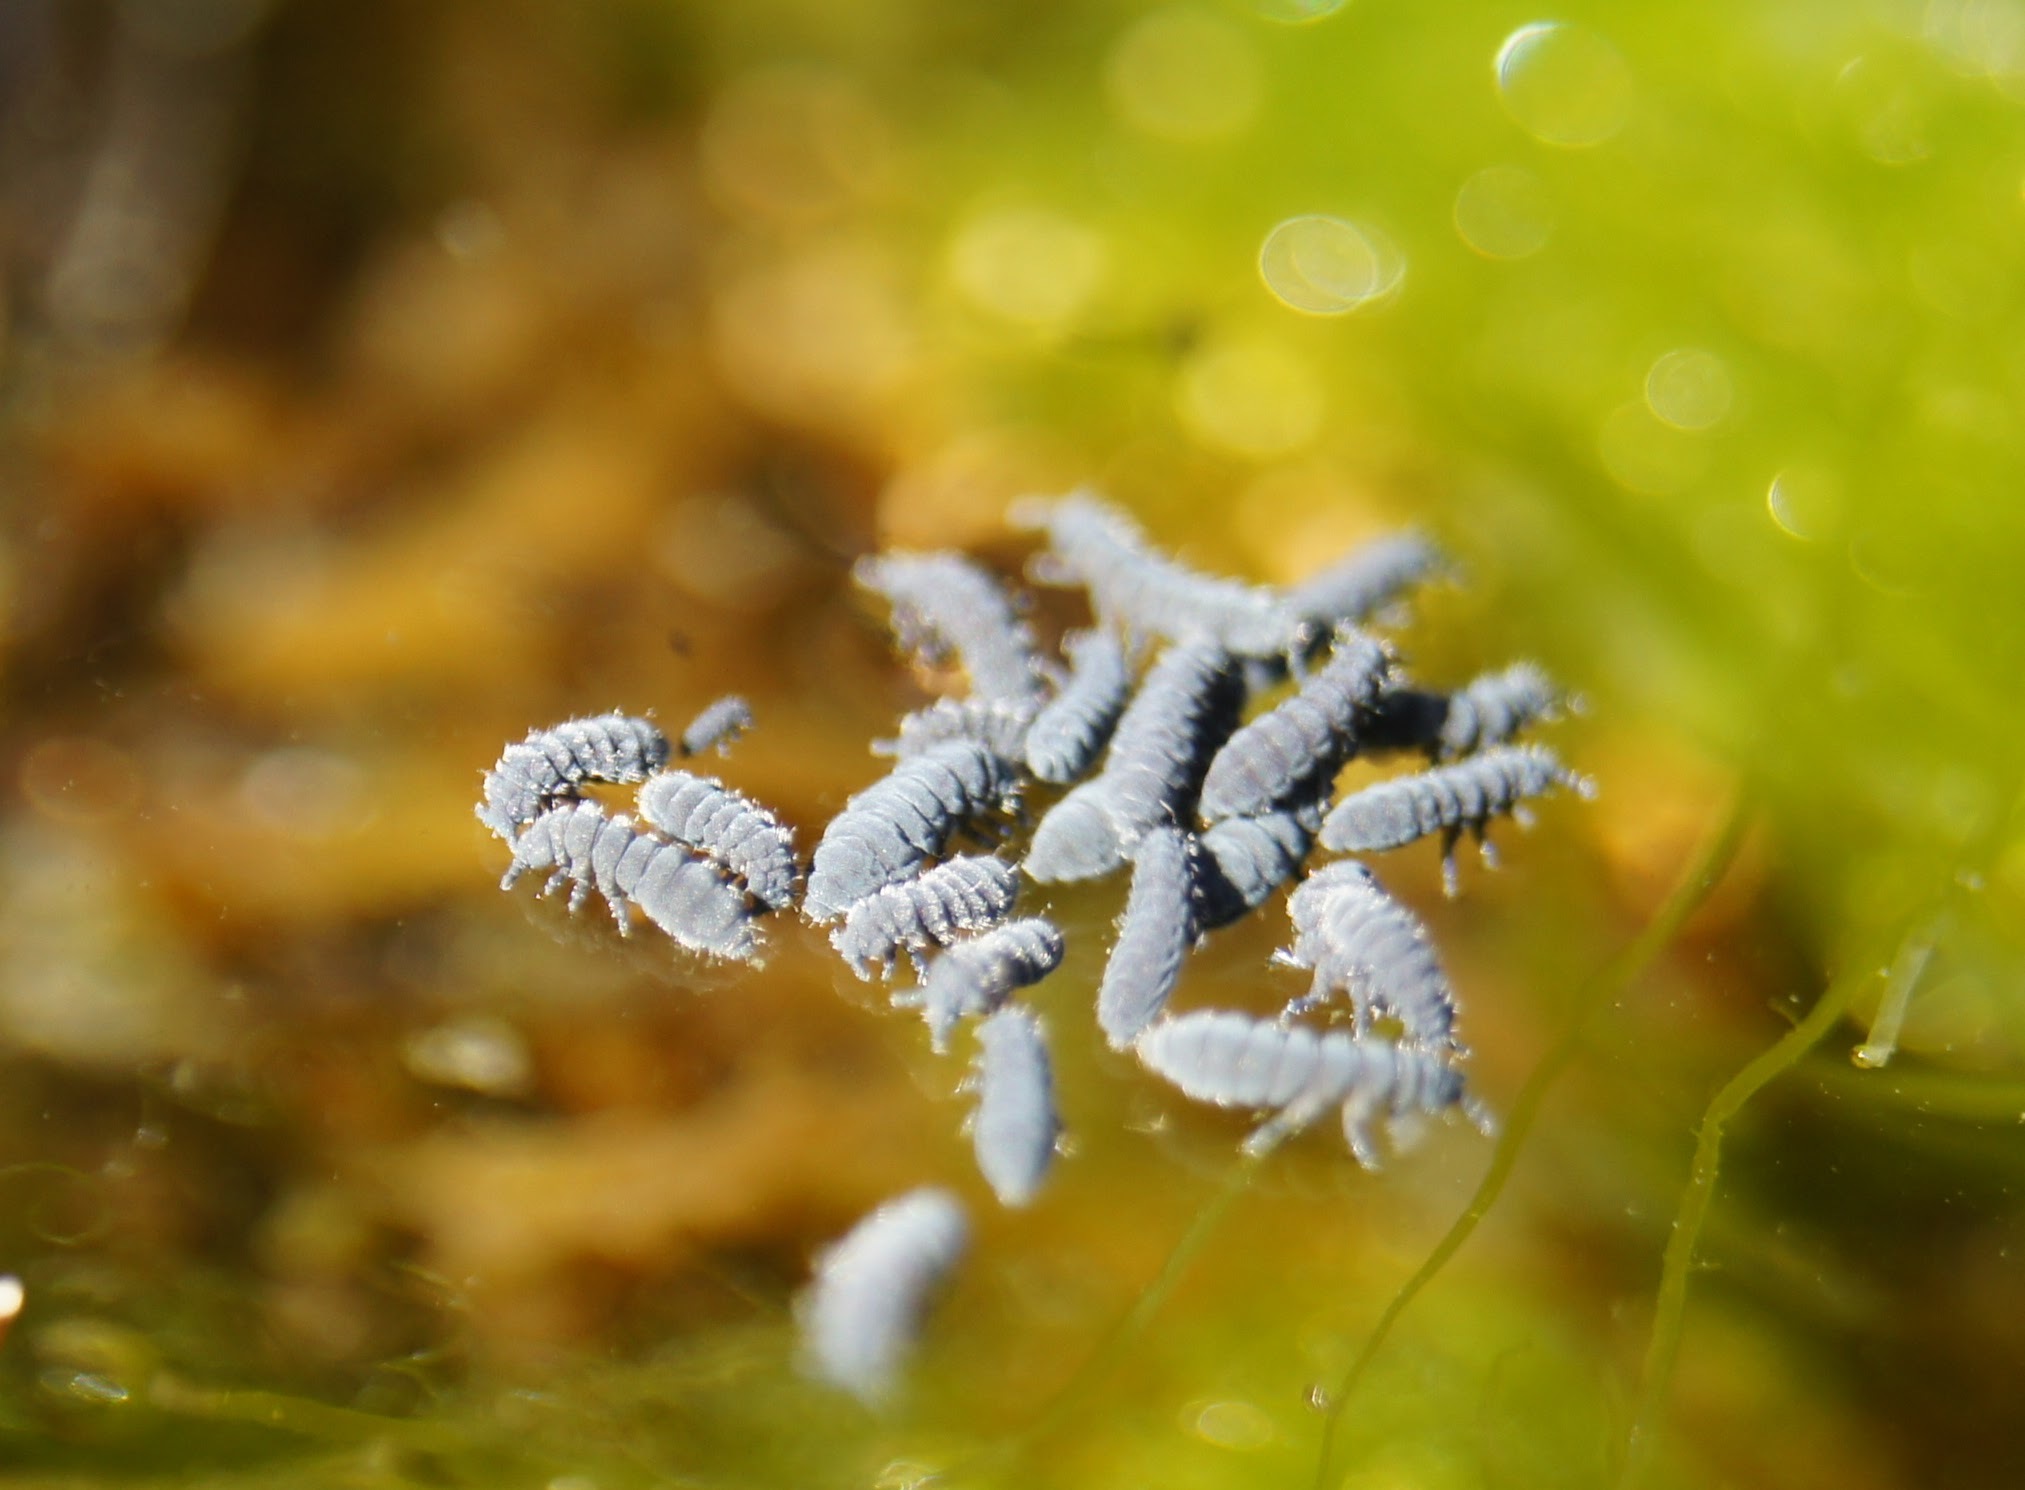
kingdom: Animalia
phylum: Arthropoda
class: Collembola
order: Poduromorpha
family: Neanuridae
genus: Anurida
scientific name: Anurida maritima
